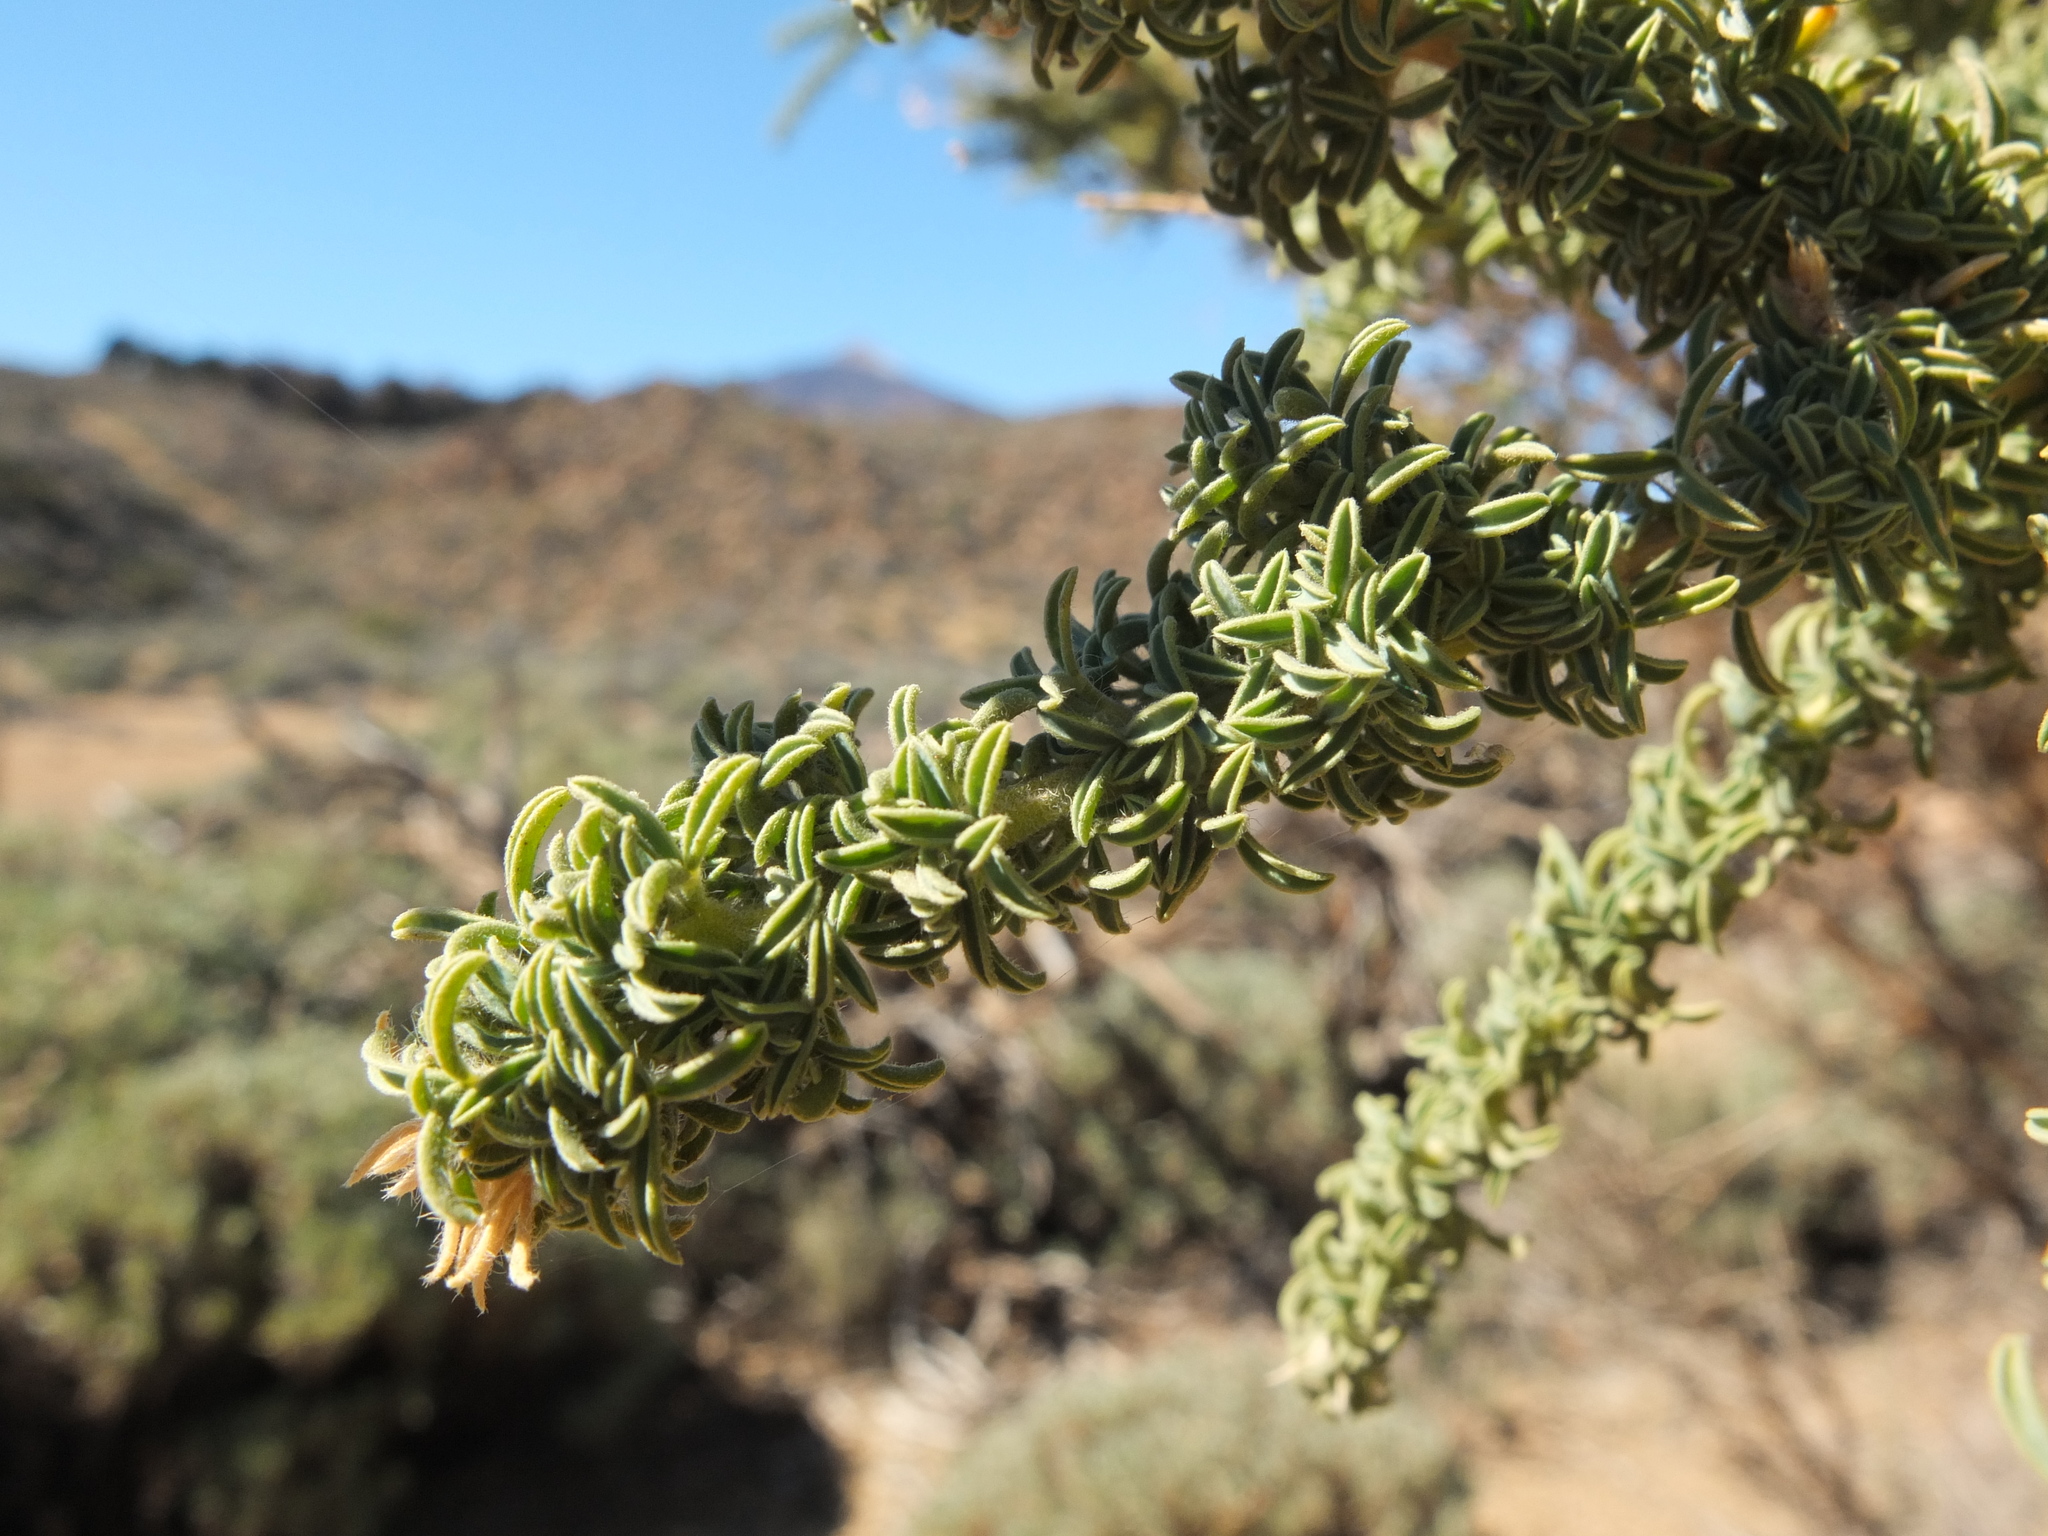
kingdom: Plantae
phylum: Tracheophyta
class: Magnoliopsida
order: Fabales
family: Fabaceae
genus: Adenocarpus
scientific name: Adenocarpus viscosus
